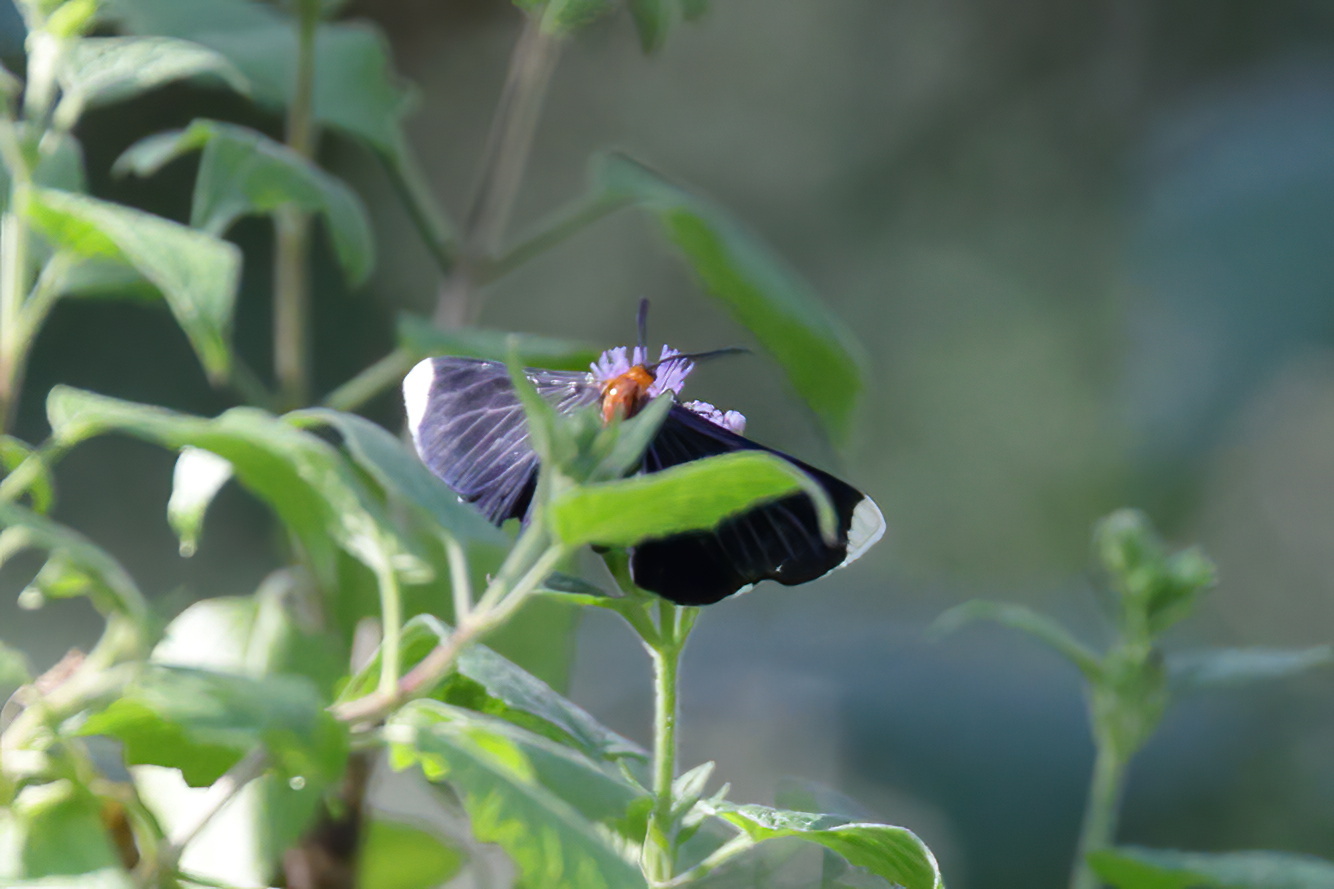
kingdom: Animalia
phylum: Arthropoda
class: Insecta
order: Lepidoptera
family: Geometridae
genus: Melanchroia
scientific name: Melanchroia chephise
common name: White-tipped black
